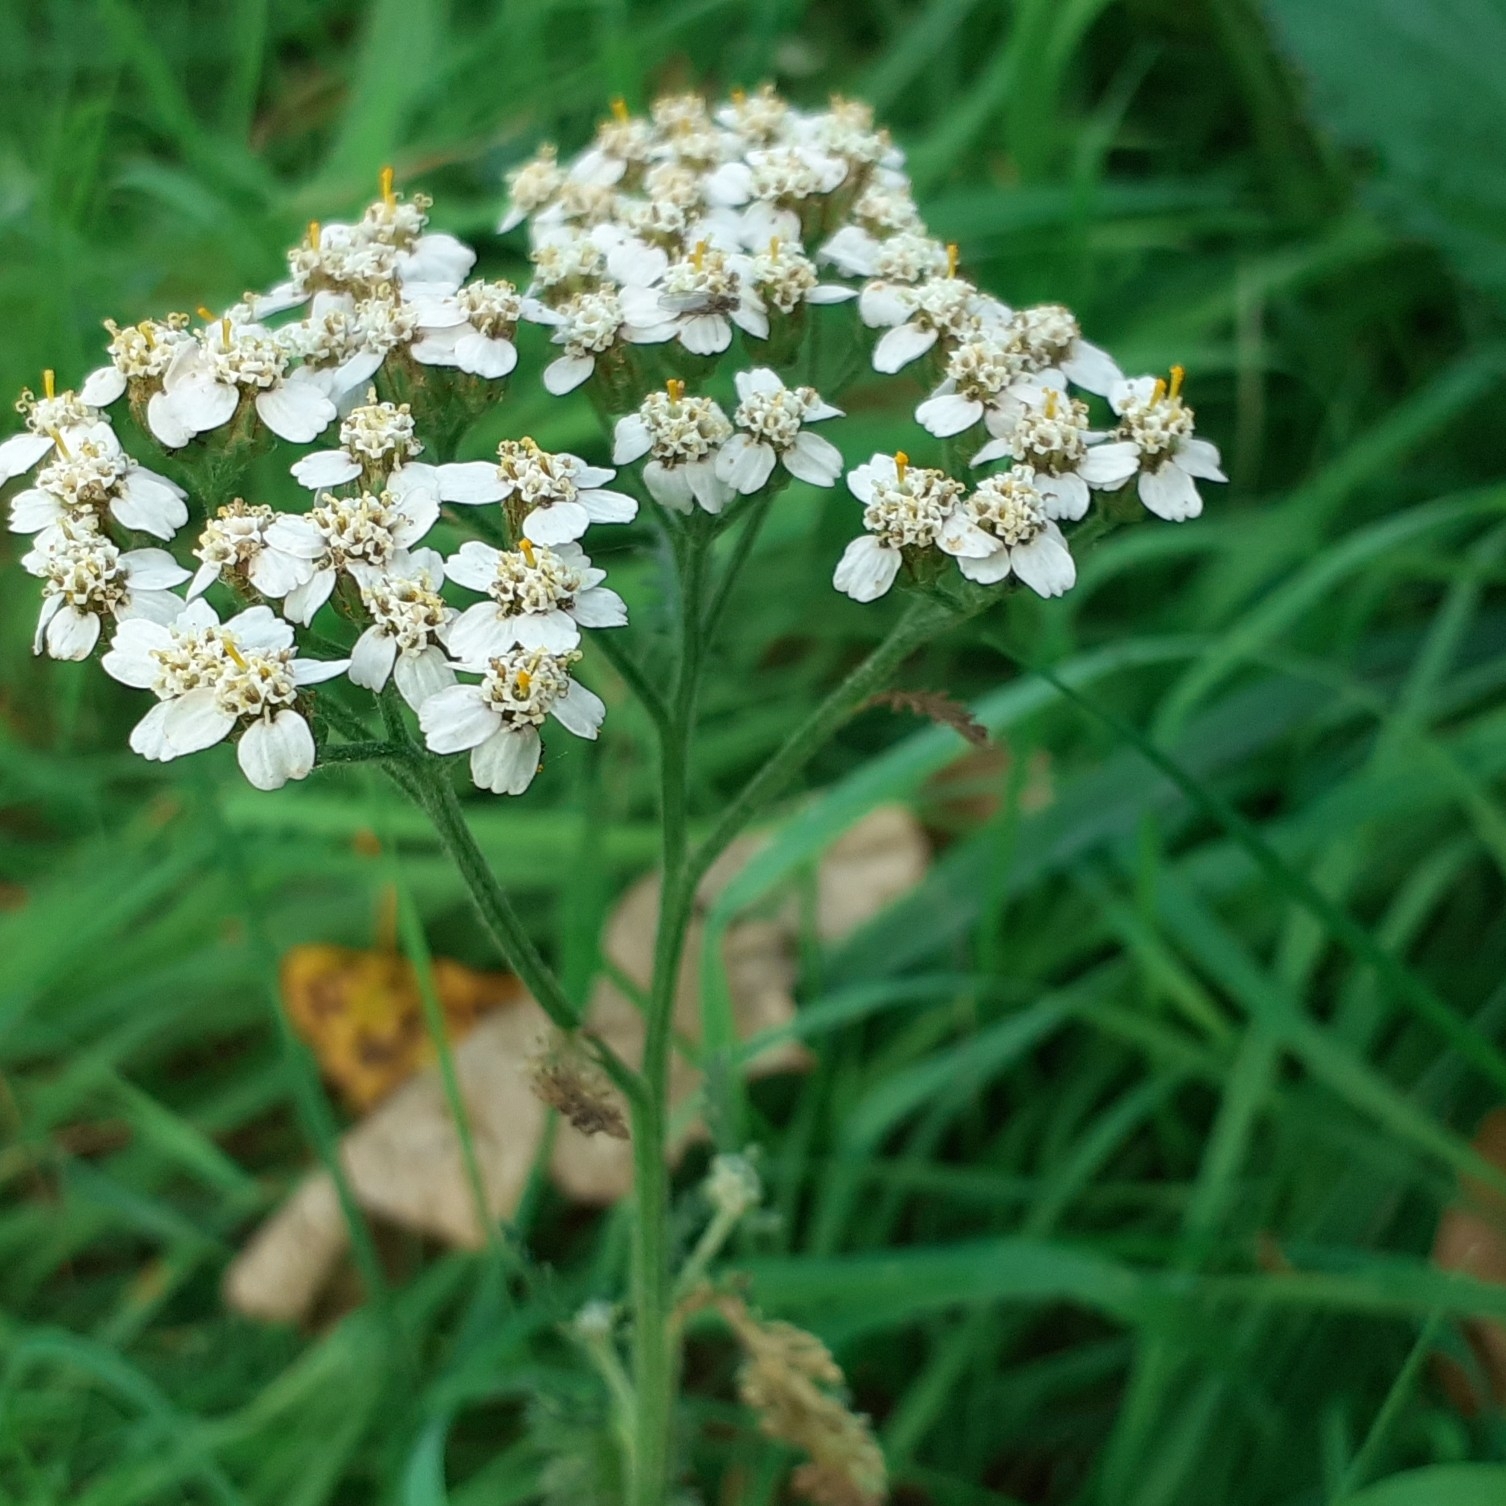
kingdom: Plantae
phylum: Tracheophyta
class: Magnoliopsida
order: Asterales
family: Asteraceae
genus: Achillea
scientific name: Achillea millefolium
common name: Yarrow
